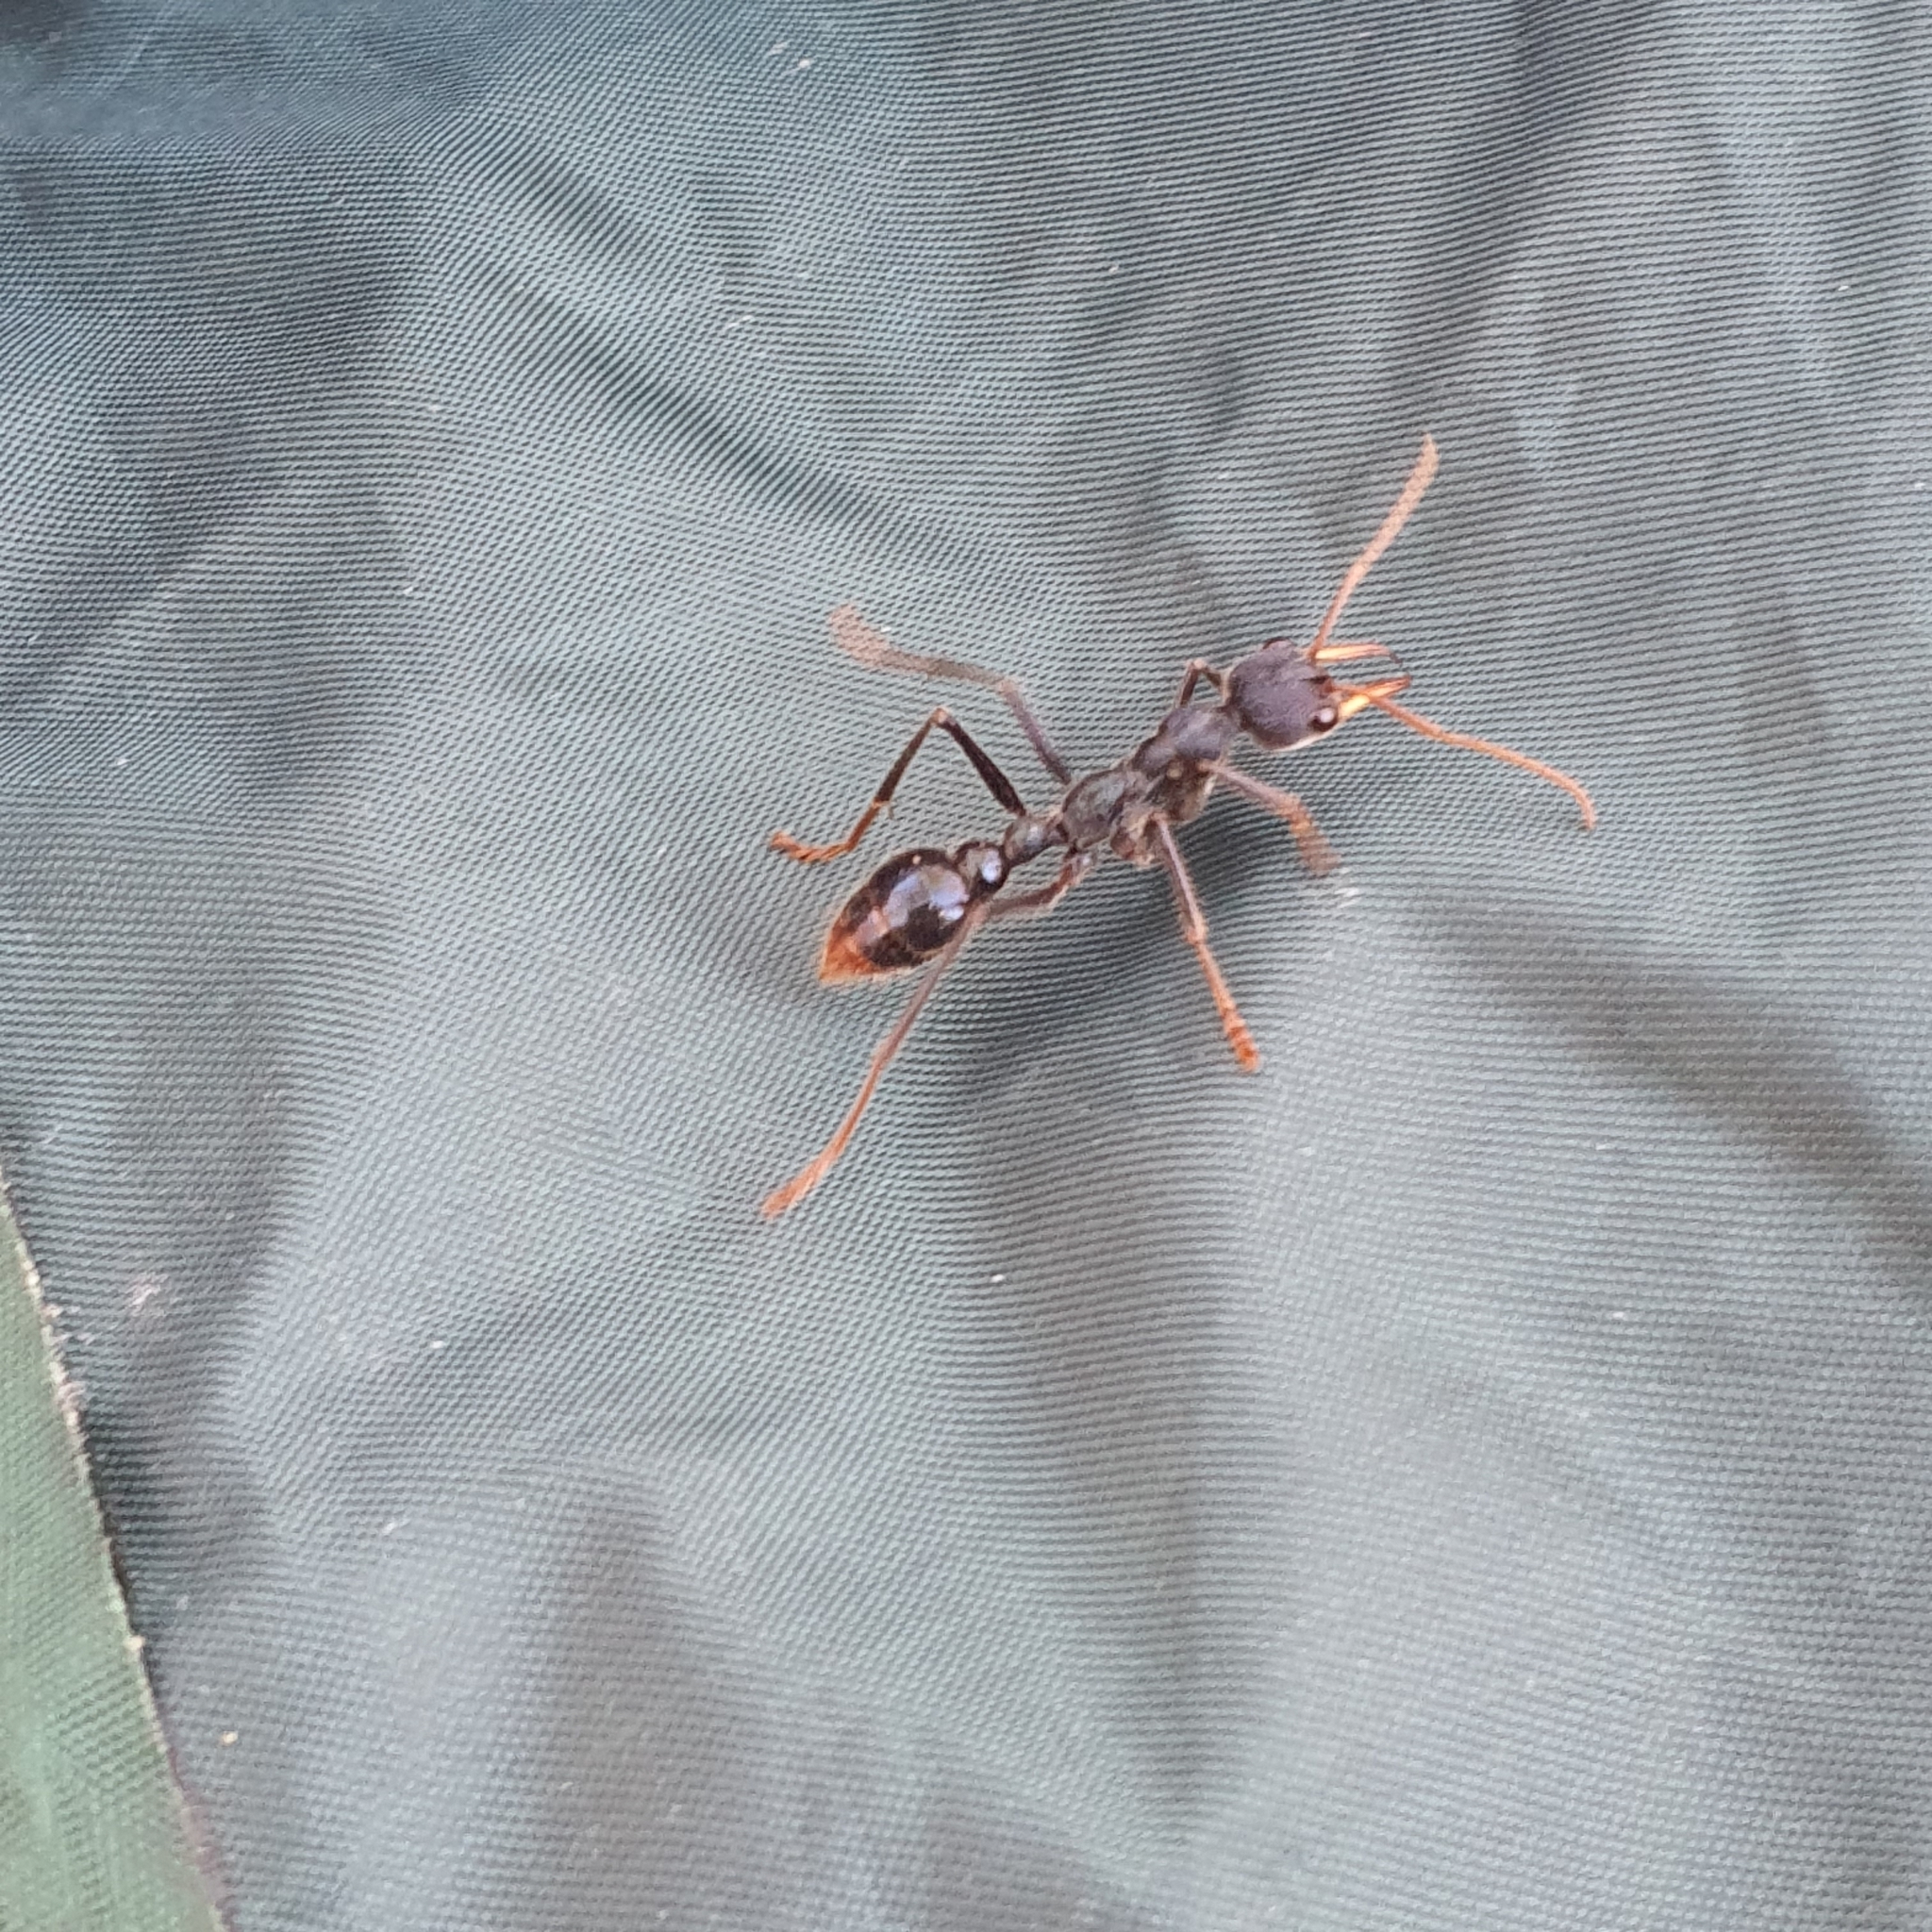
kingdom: Animalia
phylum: Arthropoda
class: Insecta
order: Hymenoptera
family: Formicidae
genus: Myrmecia
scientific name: Myrmecia tarsata
